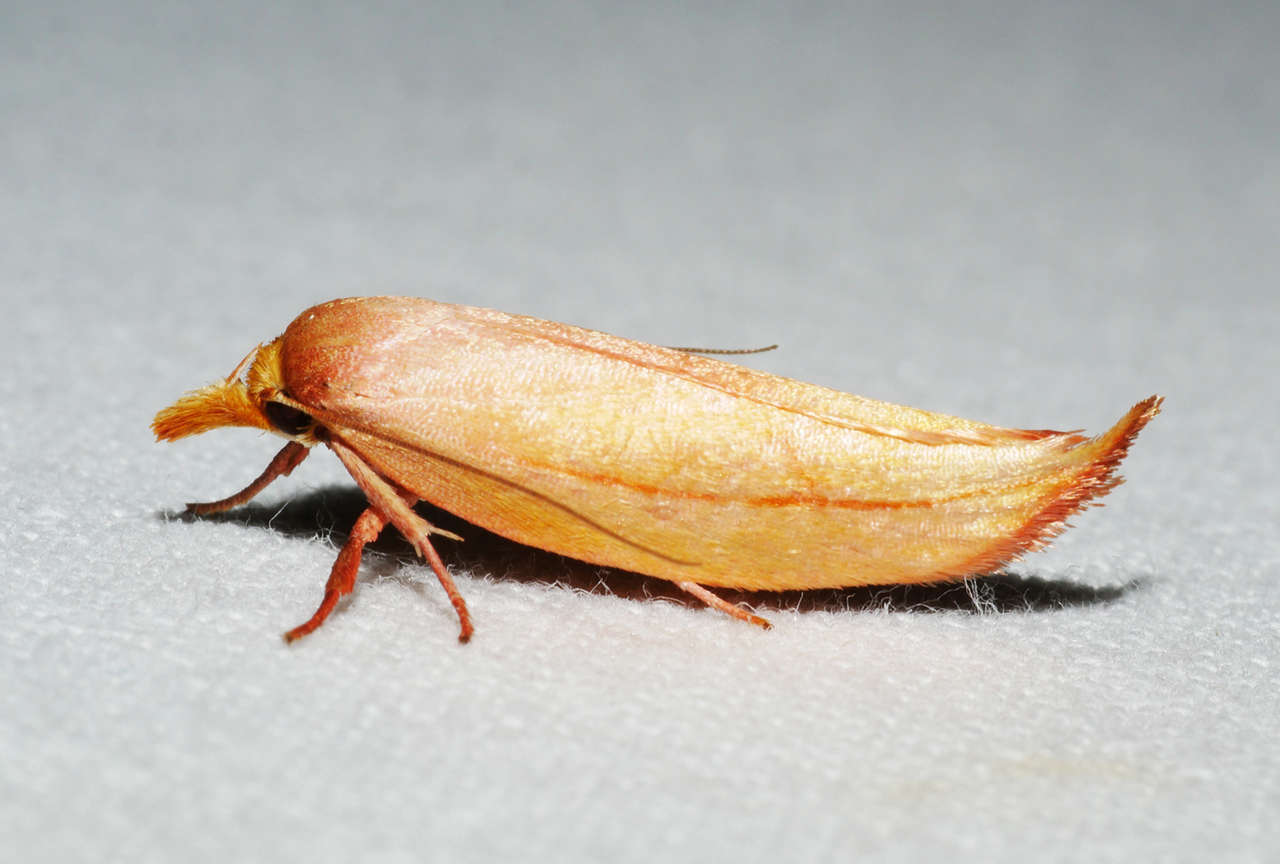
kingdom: Animalia
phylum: Arthropoda
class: Insecta
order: Lepidoptera
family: Oecophoridae
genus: Wingia
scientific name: Wingia aurata
